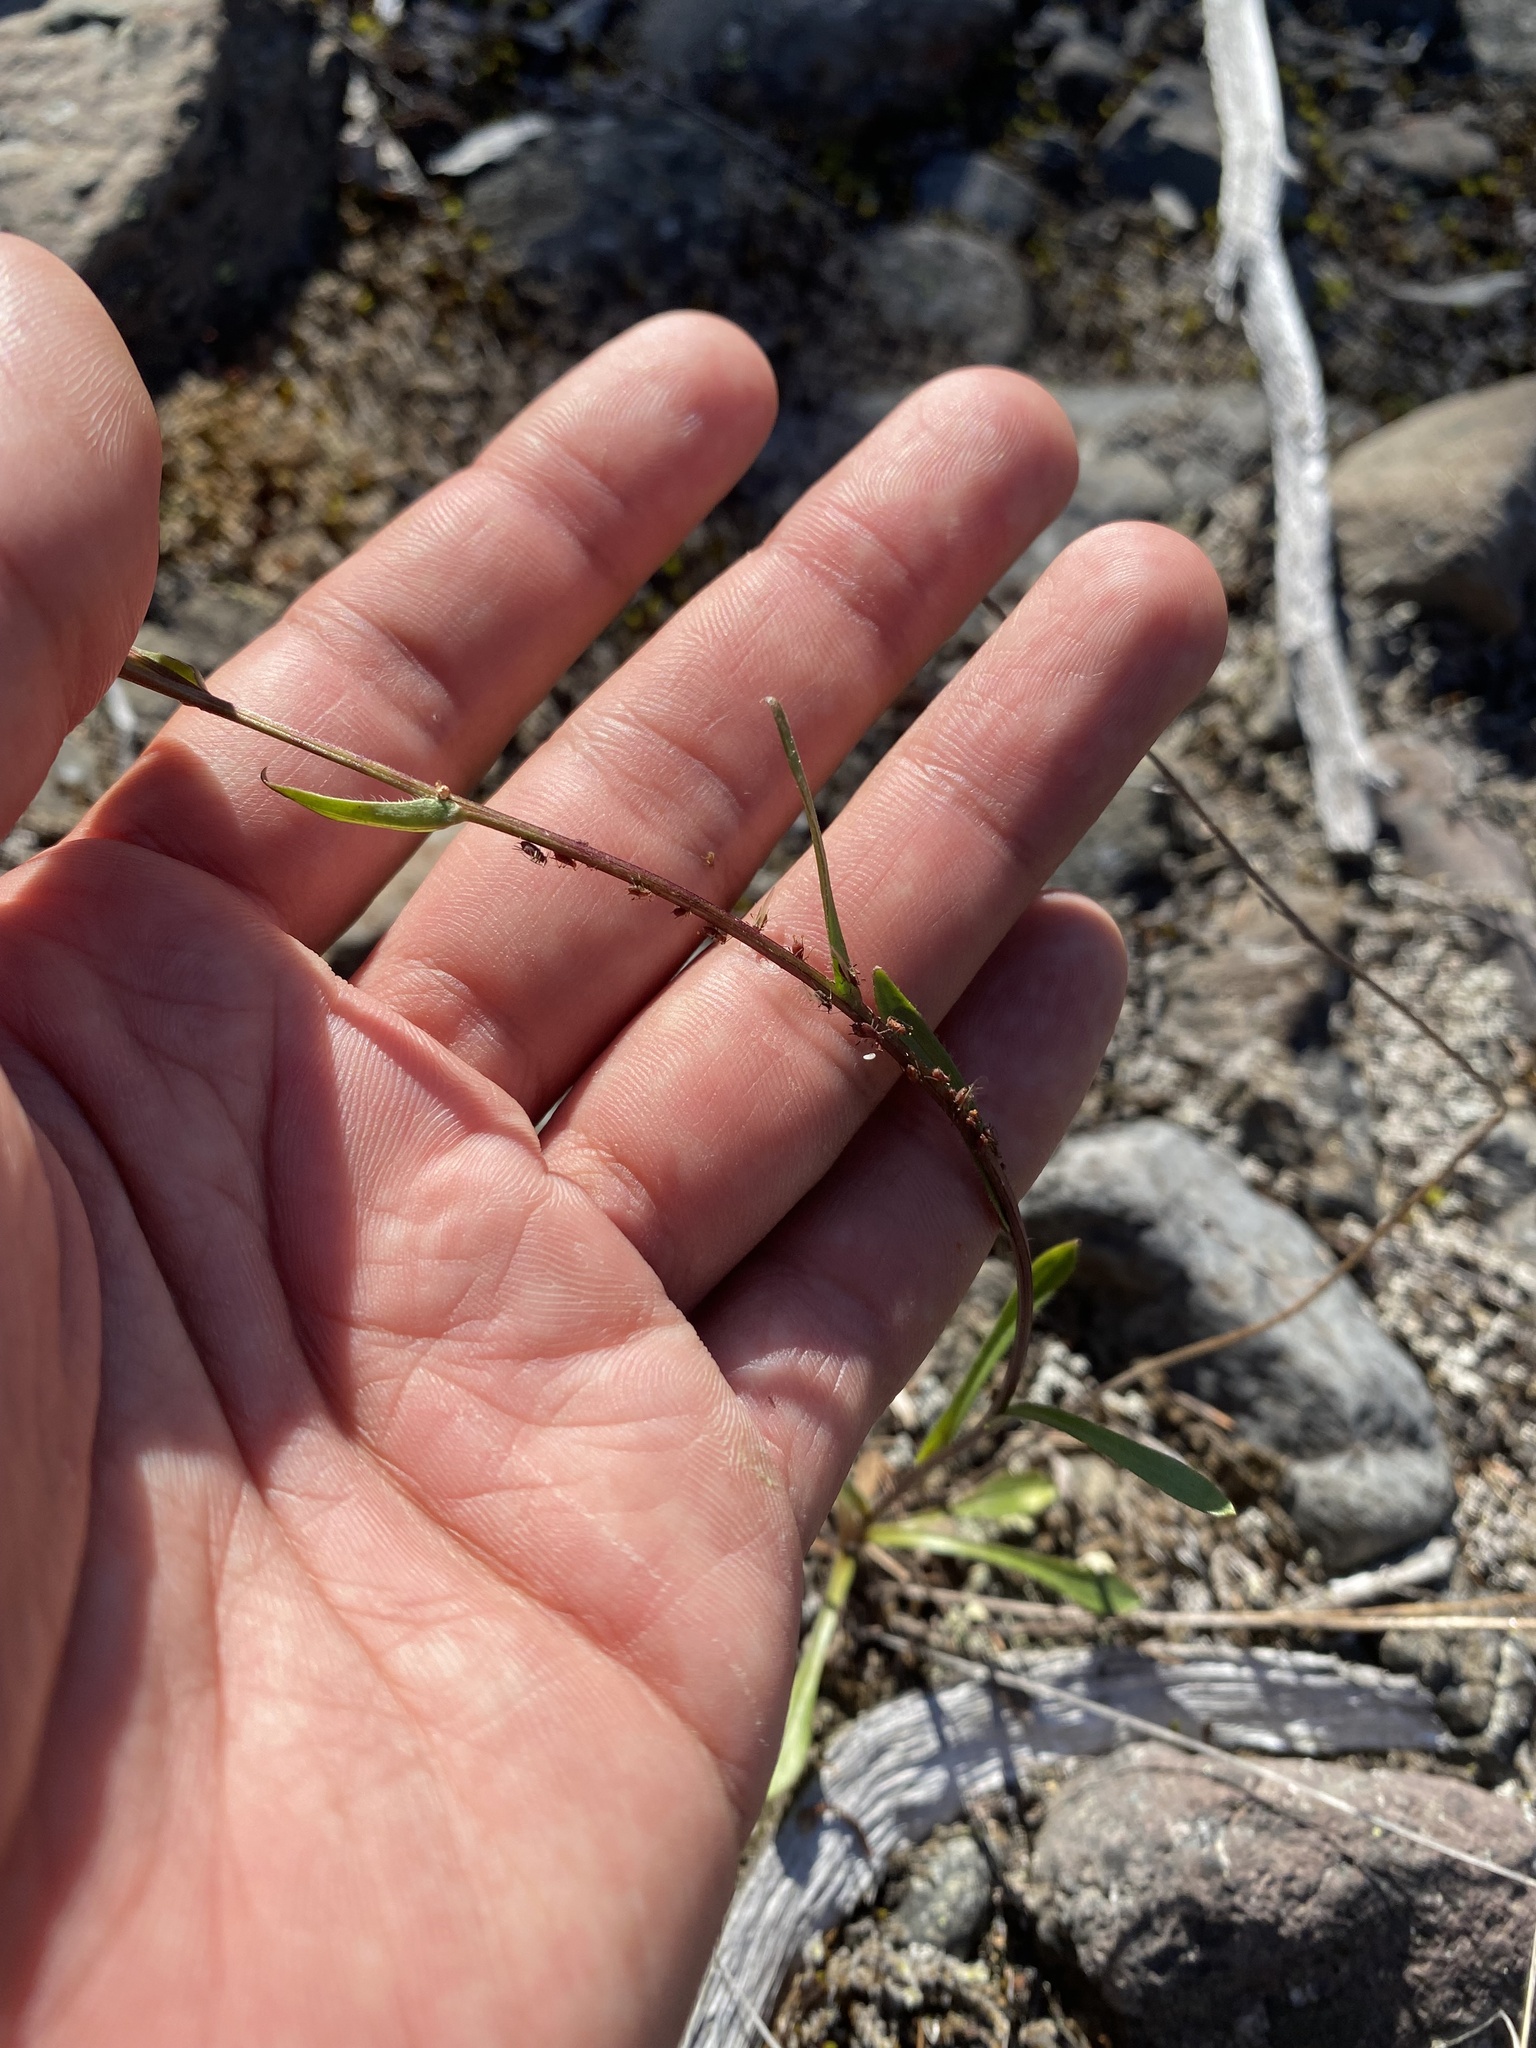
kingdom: Plantae
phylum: Tracheophyta
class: Magnoliopsida
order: Asterales
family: Asteraceae
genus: Erigeron
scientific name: Erigeron acris
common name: Blue fleabane
